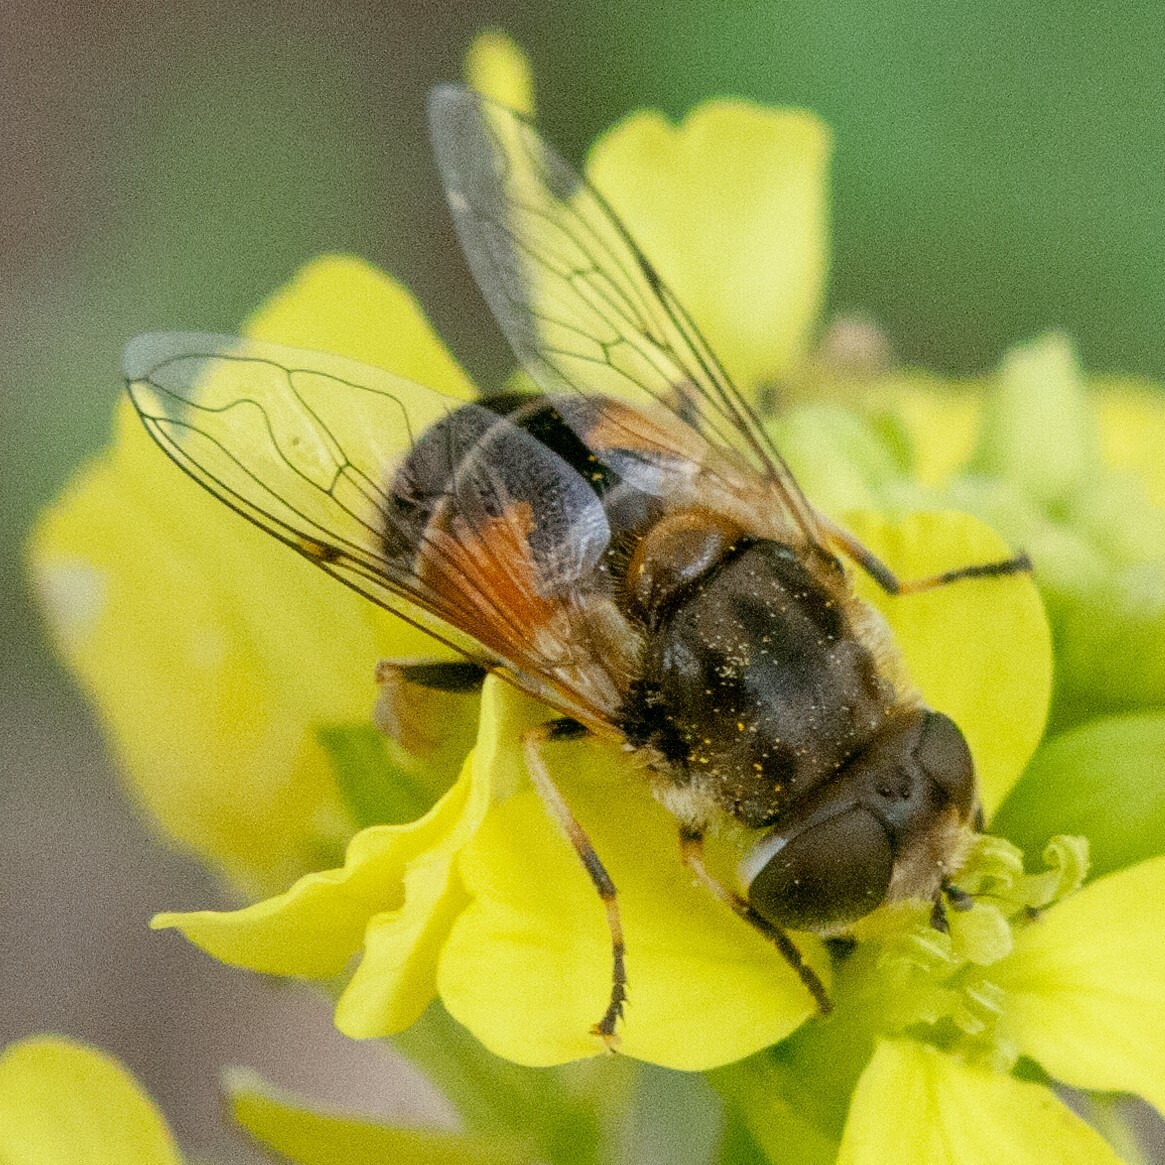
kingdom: Animalia
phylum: Arthropoda
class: Insecta
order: Diptera
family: Syrphidae
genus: Eristalis
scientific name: Eristalis arbustorum
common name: Hover fly
